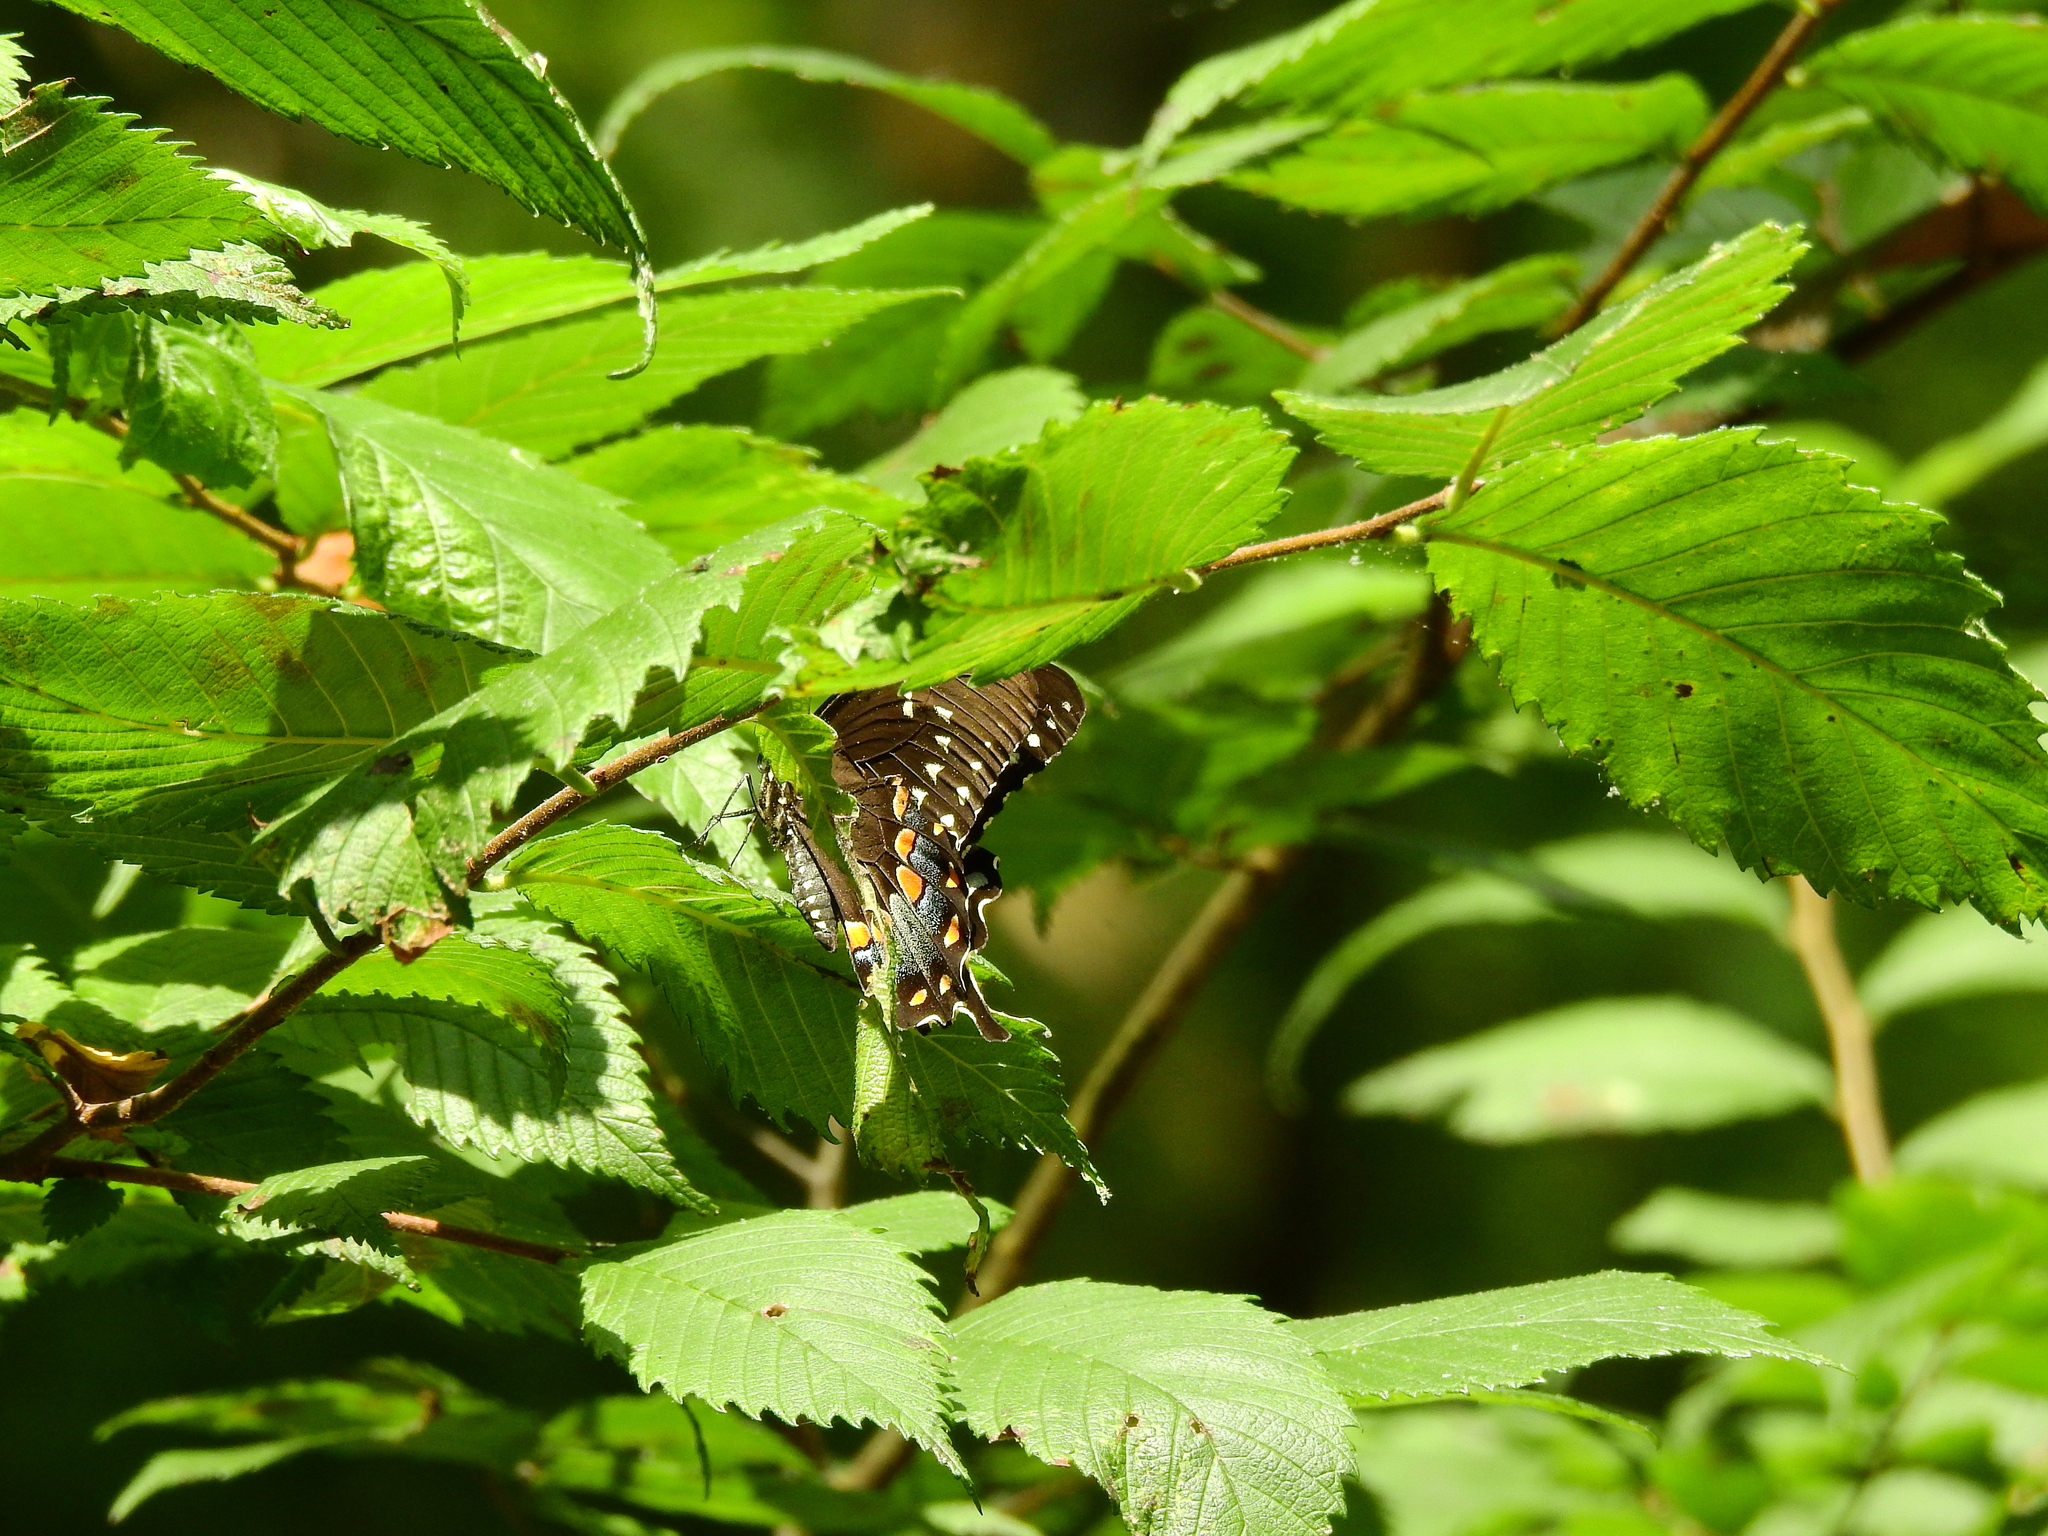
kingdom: Animalia
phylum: Arthropoda
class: Insecta
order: Lepidoptera
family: Papilionidae
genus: Papilio
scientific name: Papilio troilus
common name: Spicebush swallowtail
